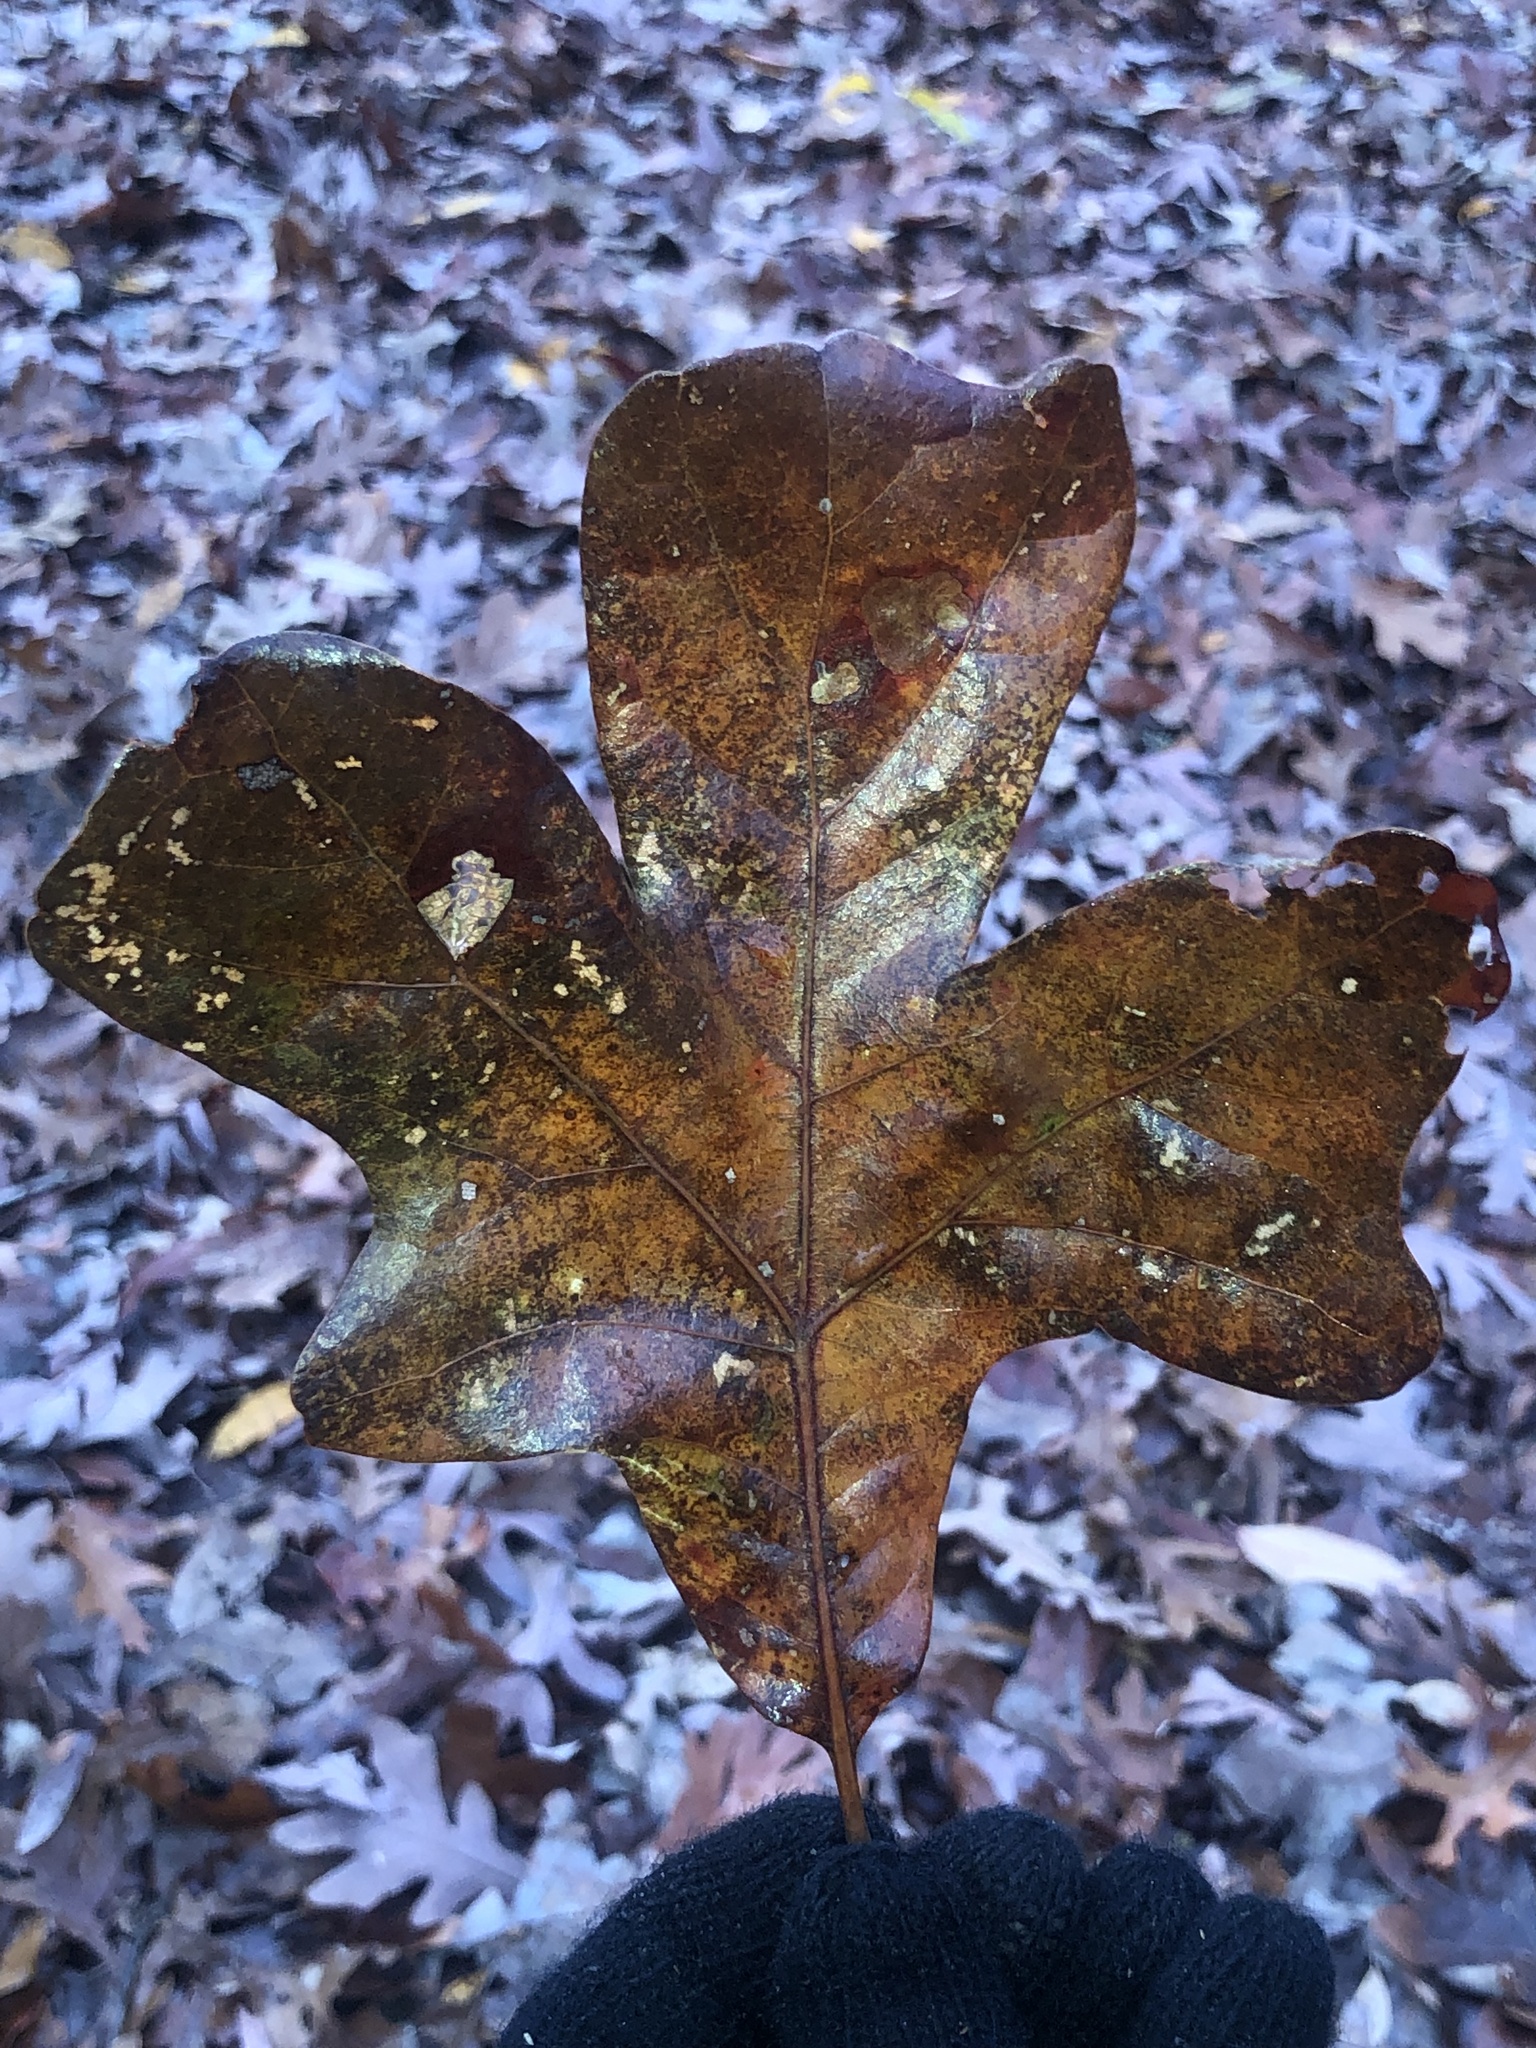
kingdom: Plantae
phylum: Tracheophyta
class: Magnoliopsida
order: Fagales
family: Fagaceae
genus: Quercus
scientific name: Quercus stellata
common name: Post oak
